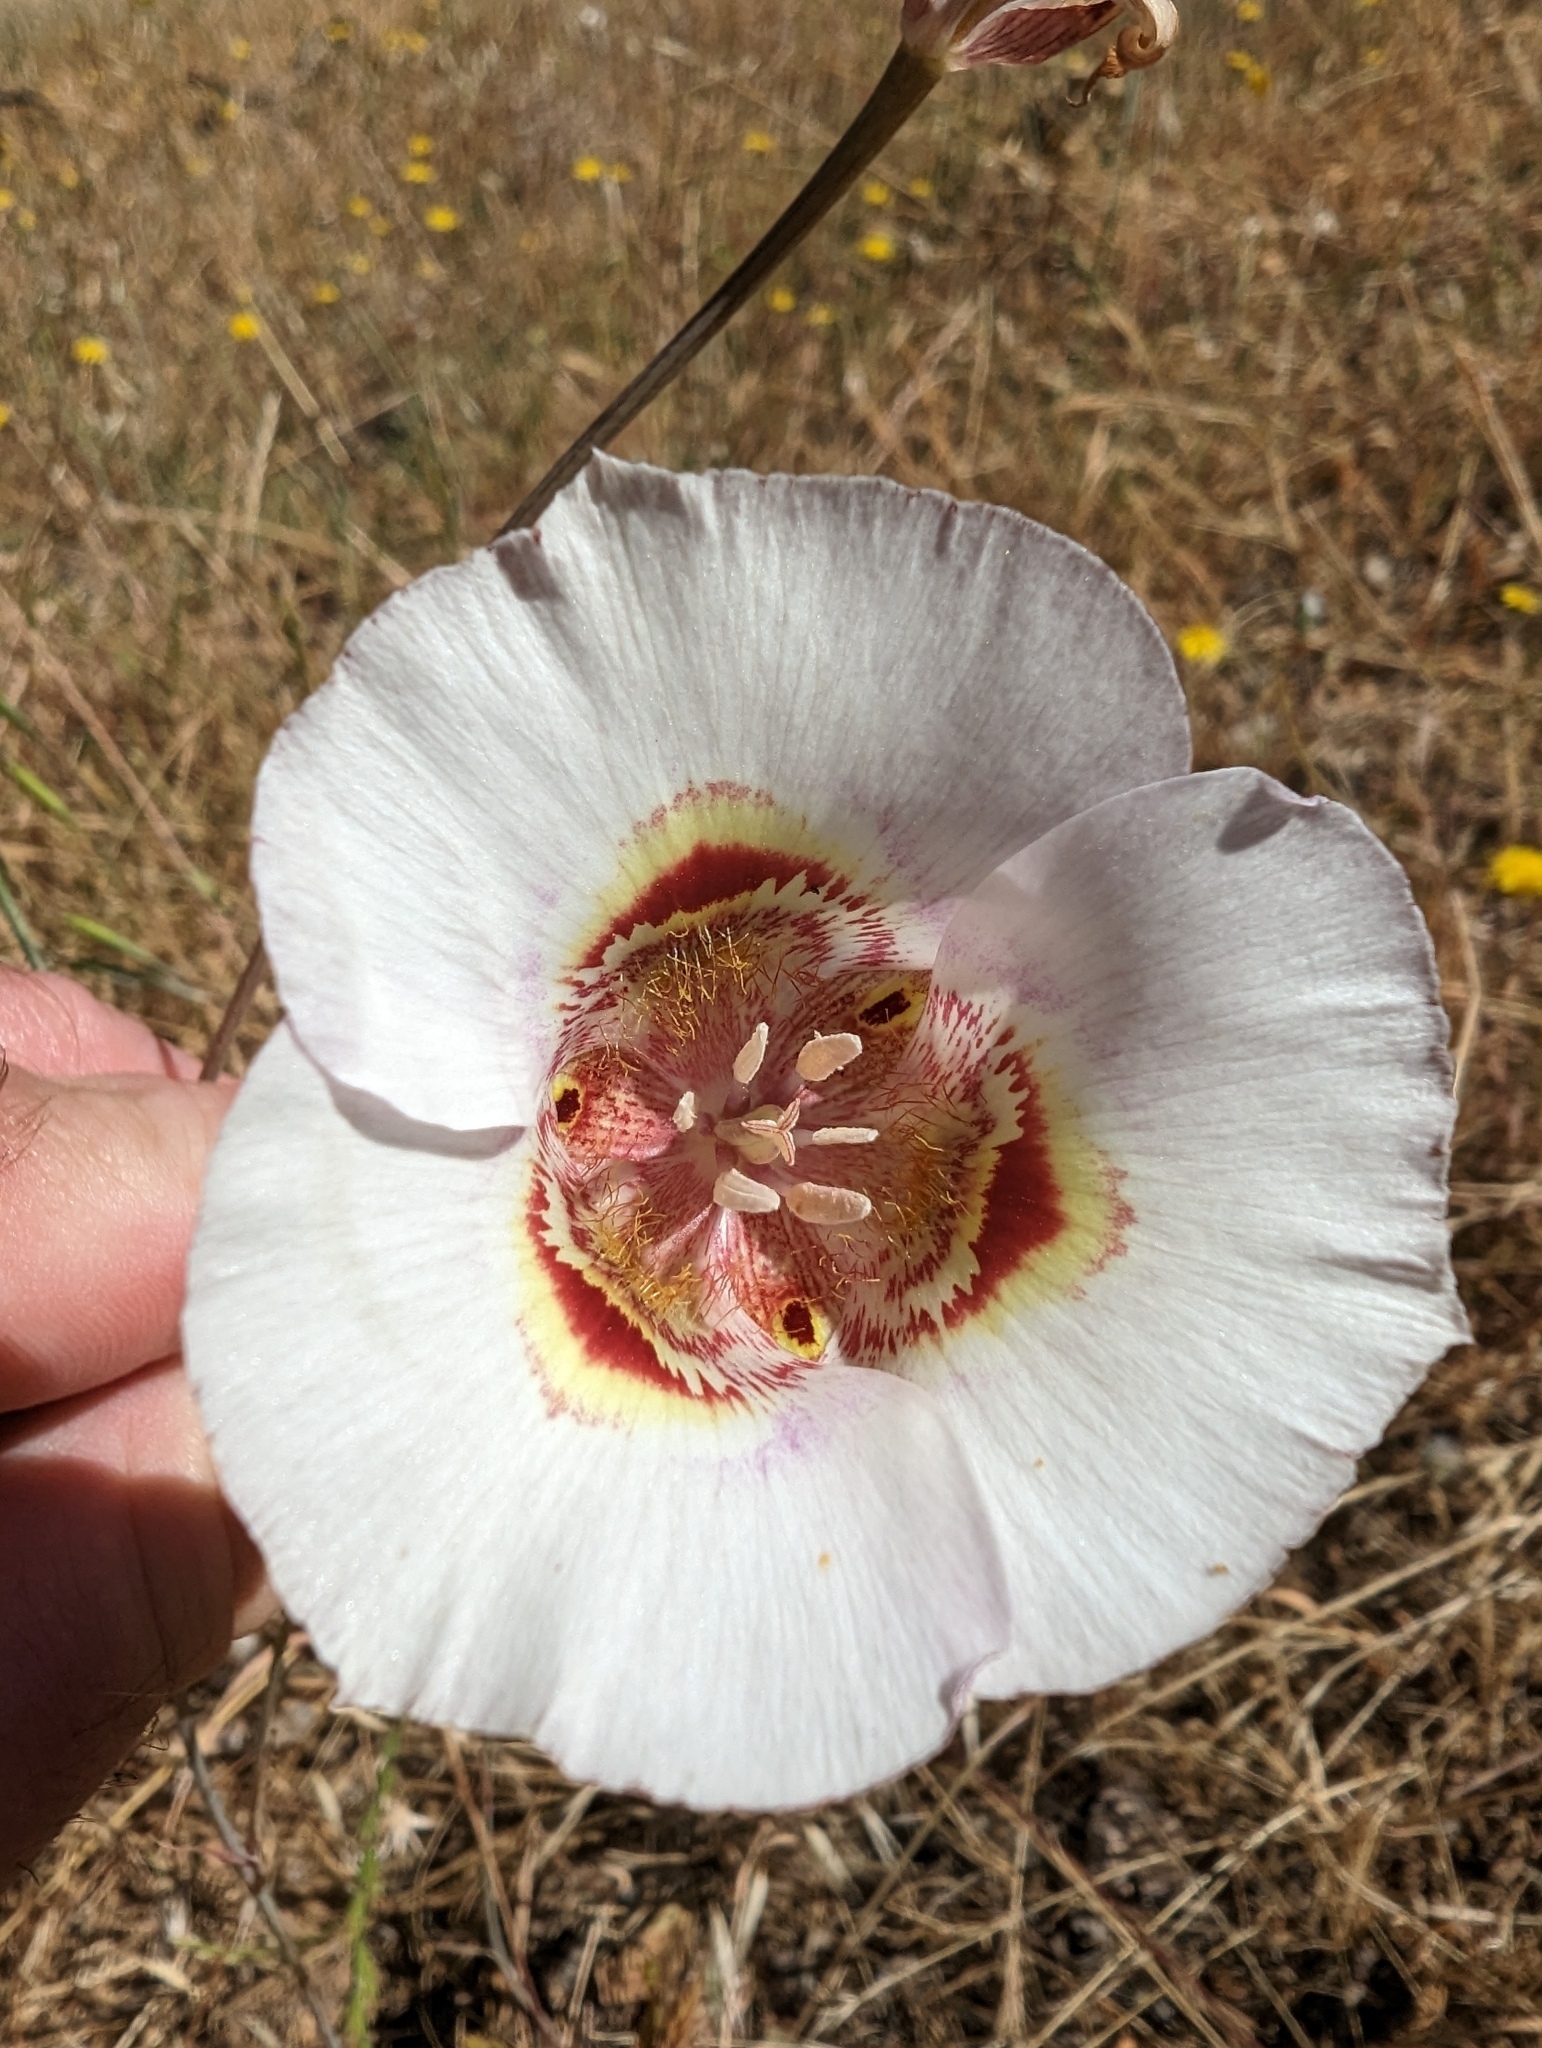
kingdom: Plantae
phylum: Tracheophyta
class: Liliopsida
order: Liliales
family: Liliaceae
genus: Calochortus
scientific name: Calochortus argillosus
